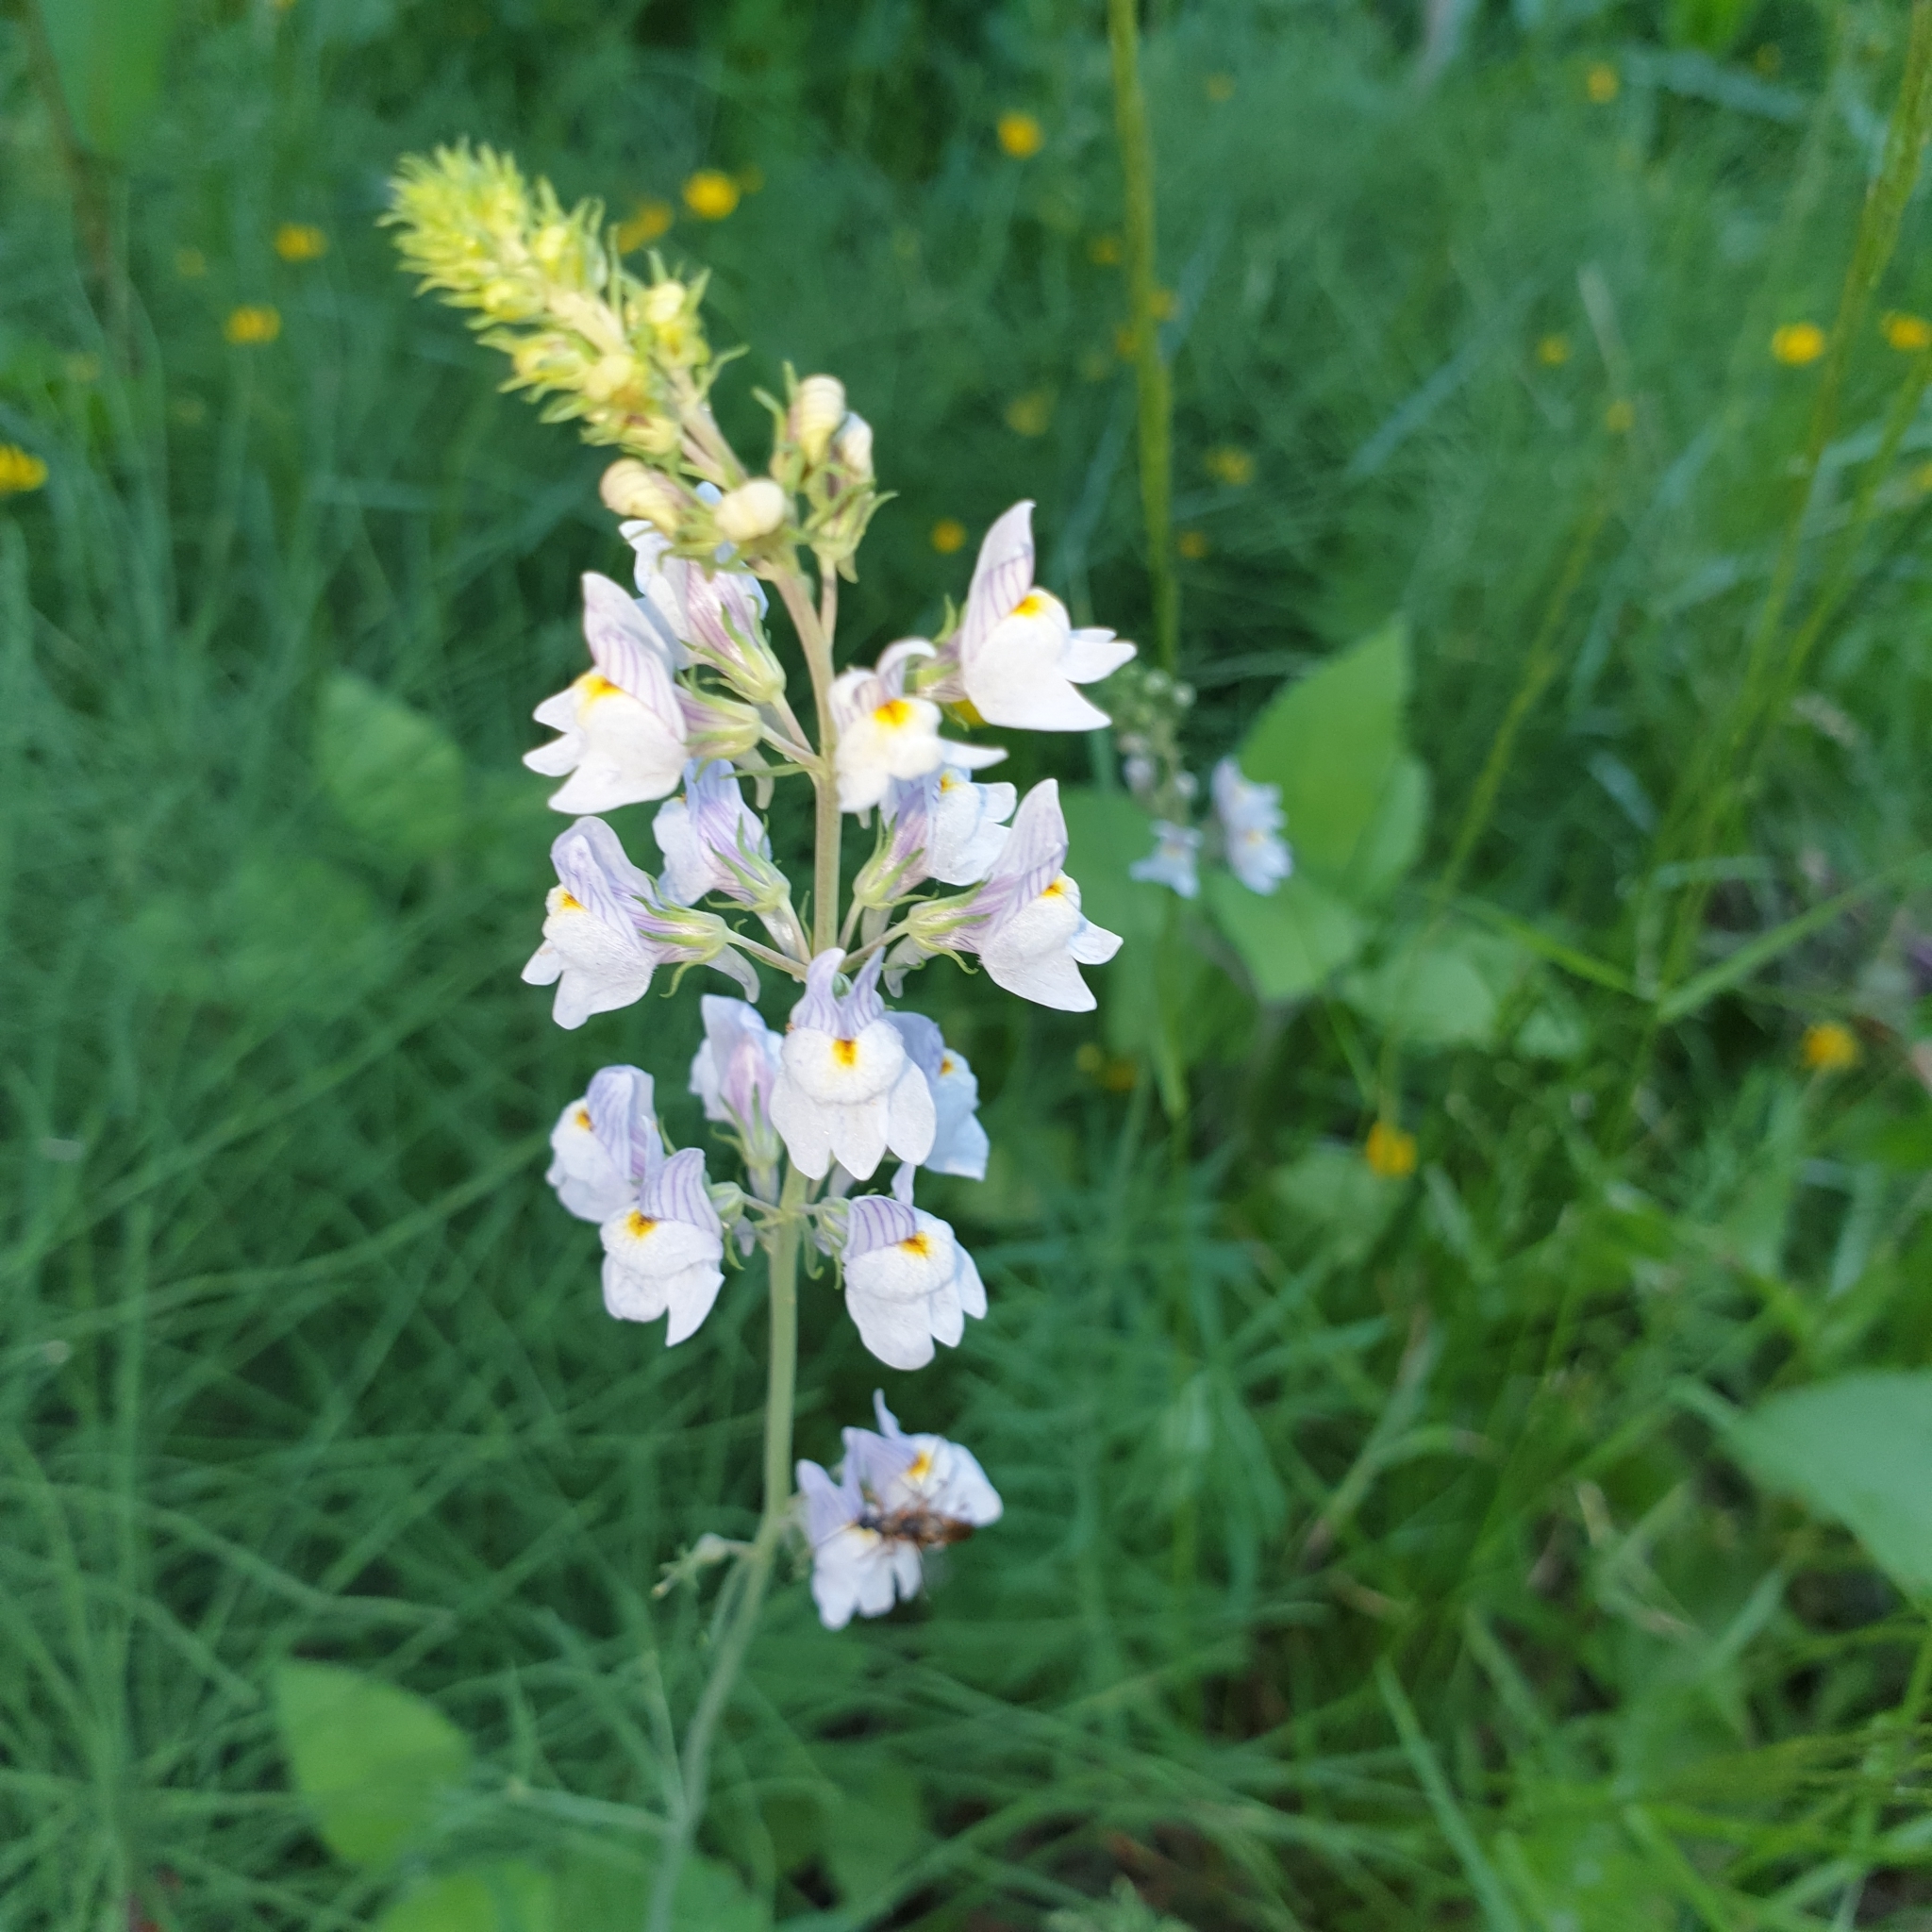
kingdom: Plantae
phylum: Tracheophyta
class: Magnoliopsida
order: Lamiales
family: Plantaginaceae
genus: Linaria
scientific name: Linaria repens
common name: Pale toadflax
